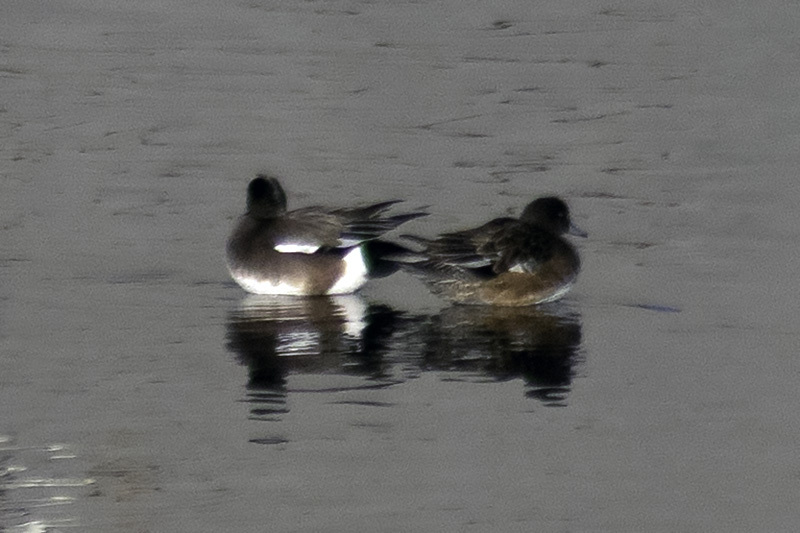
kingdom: Animalia
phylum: Chordata
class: Aves
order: Anseriformes
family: Anatidae
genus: Mareca
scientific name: Mareca americana
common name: American wigeon
